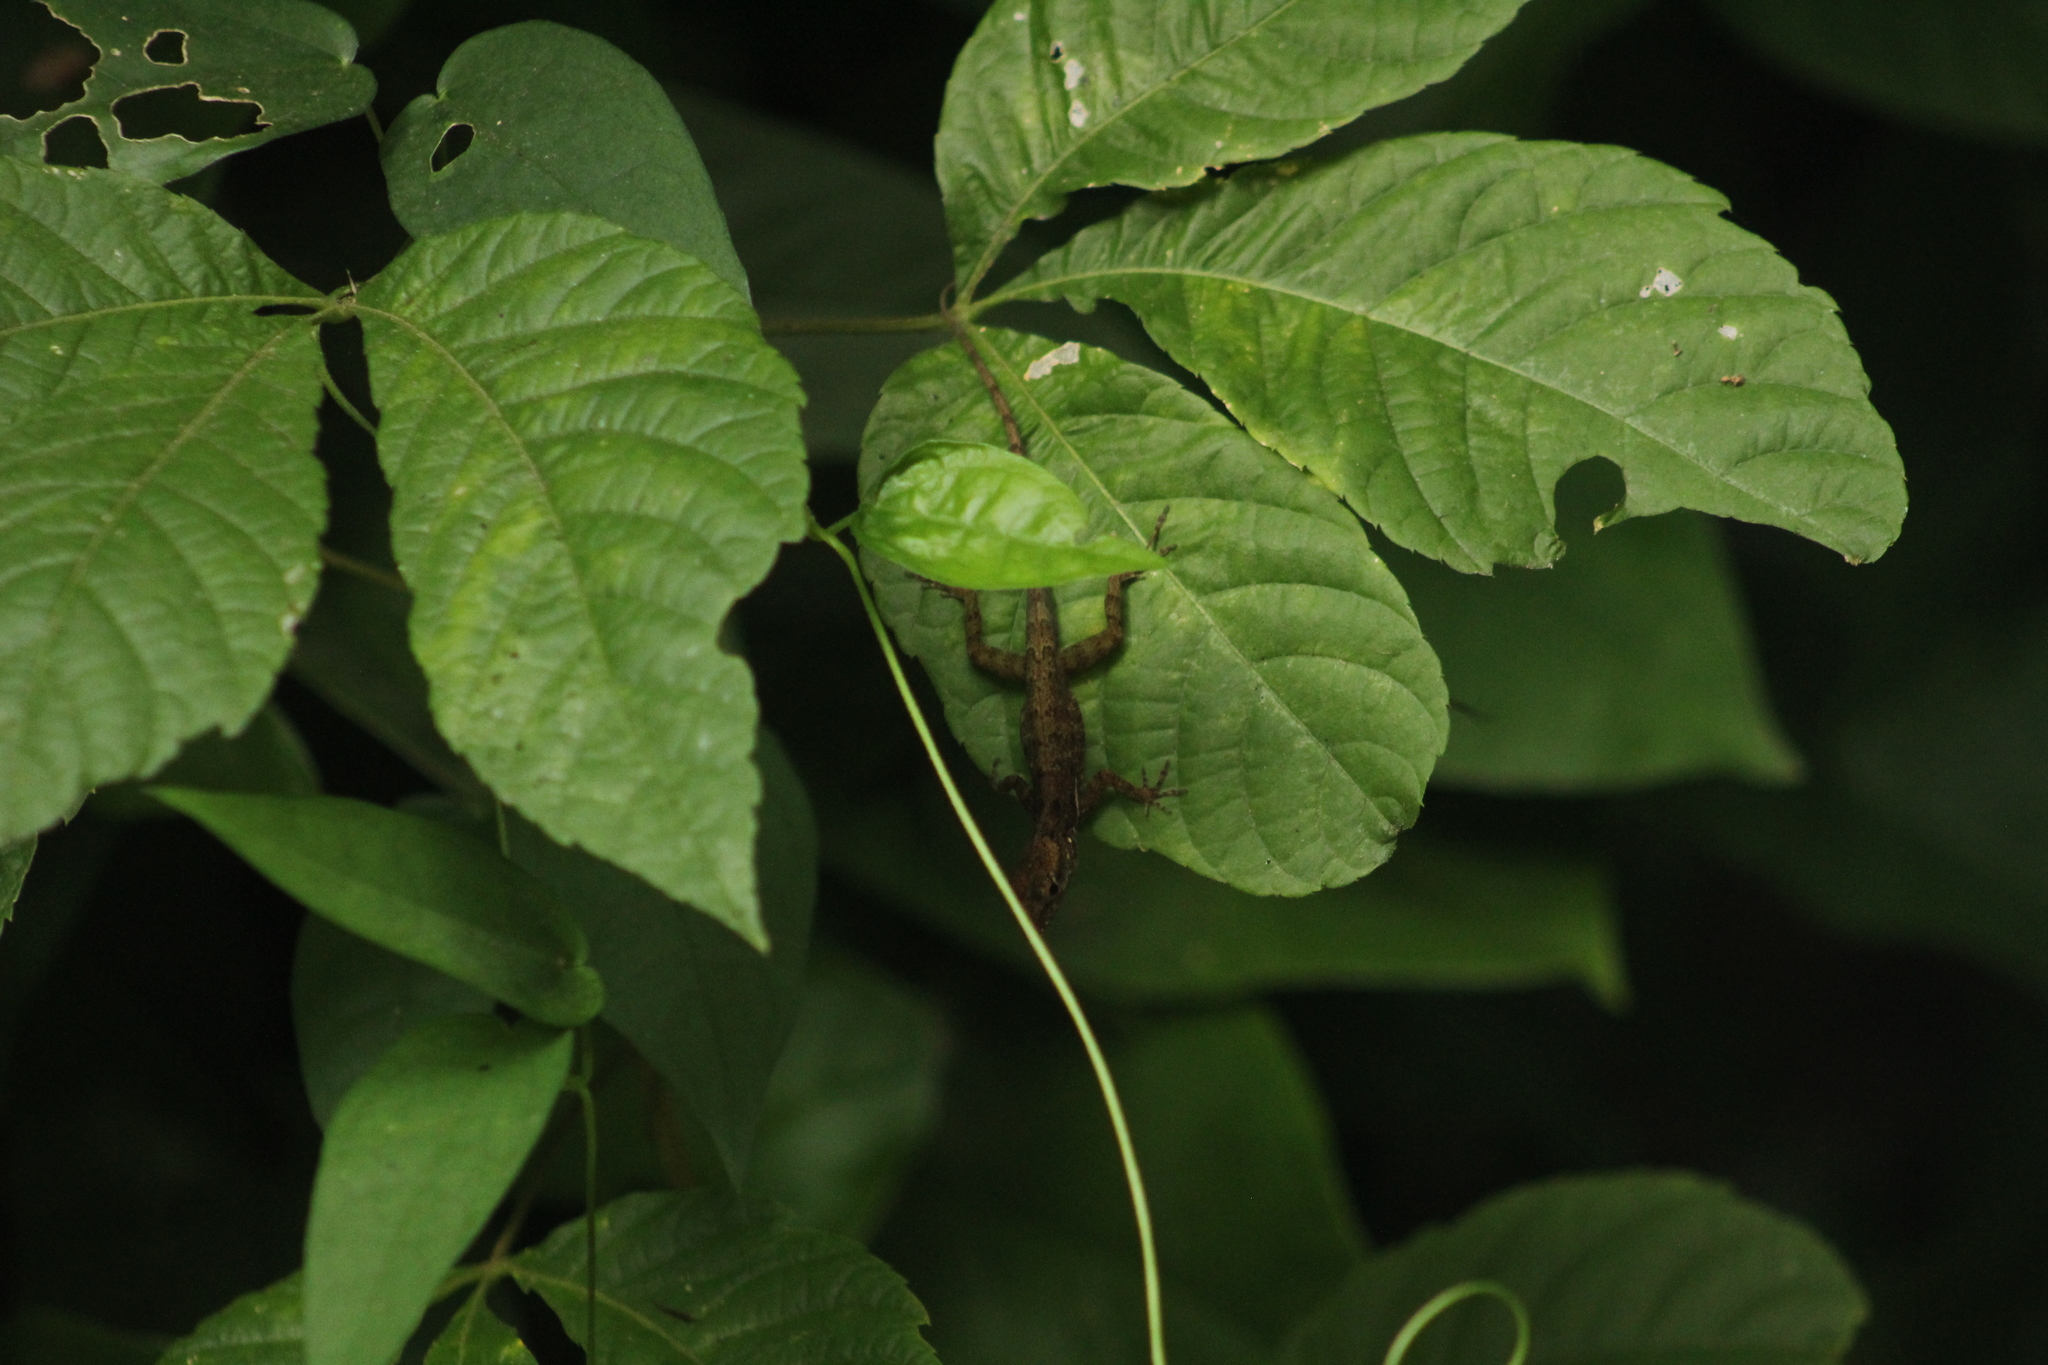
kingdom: Animalia
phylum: Chordata
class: Squamata
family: Dactyloidae
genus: Anolis
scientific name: Anolis sabanus
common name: Saba anole
